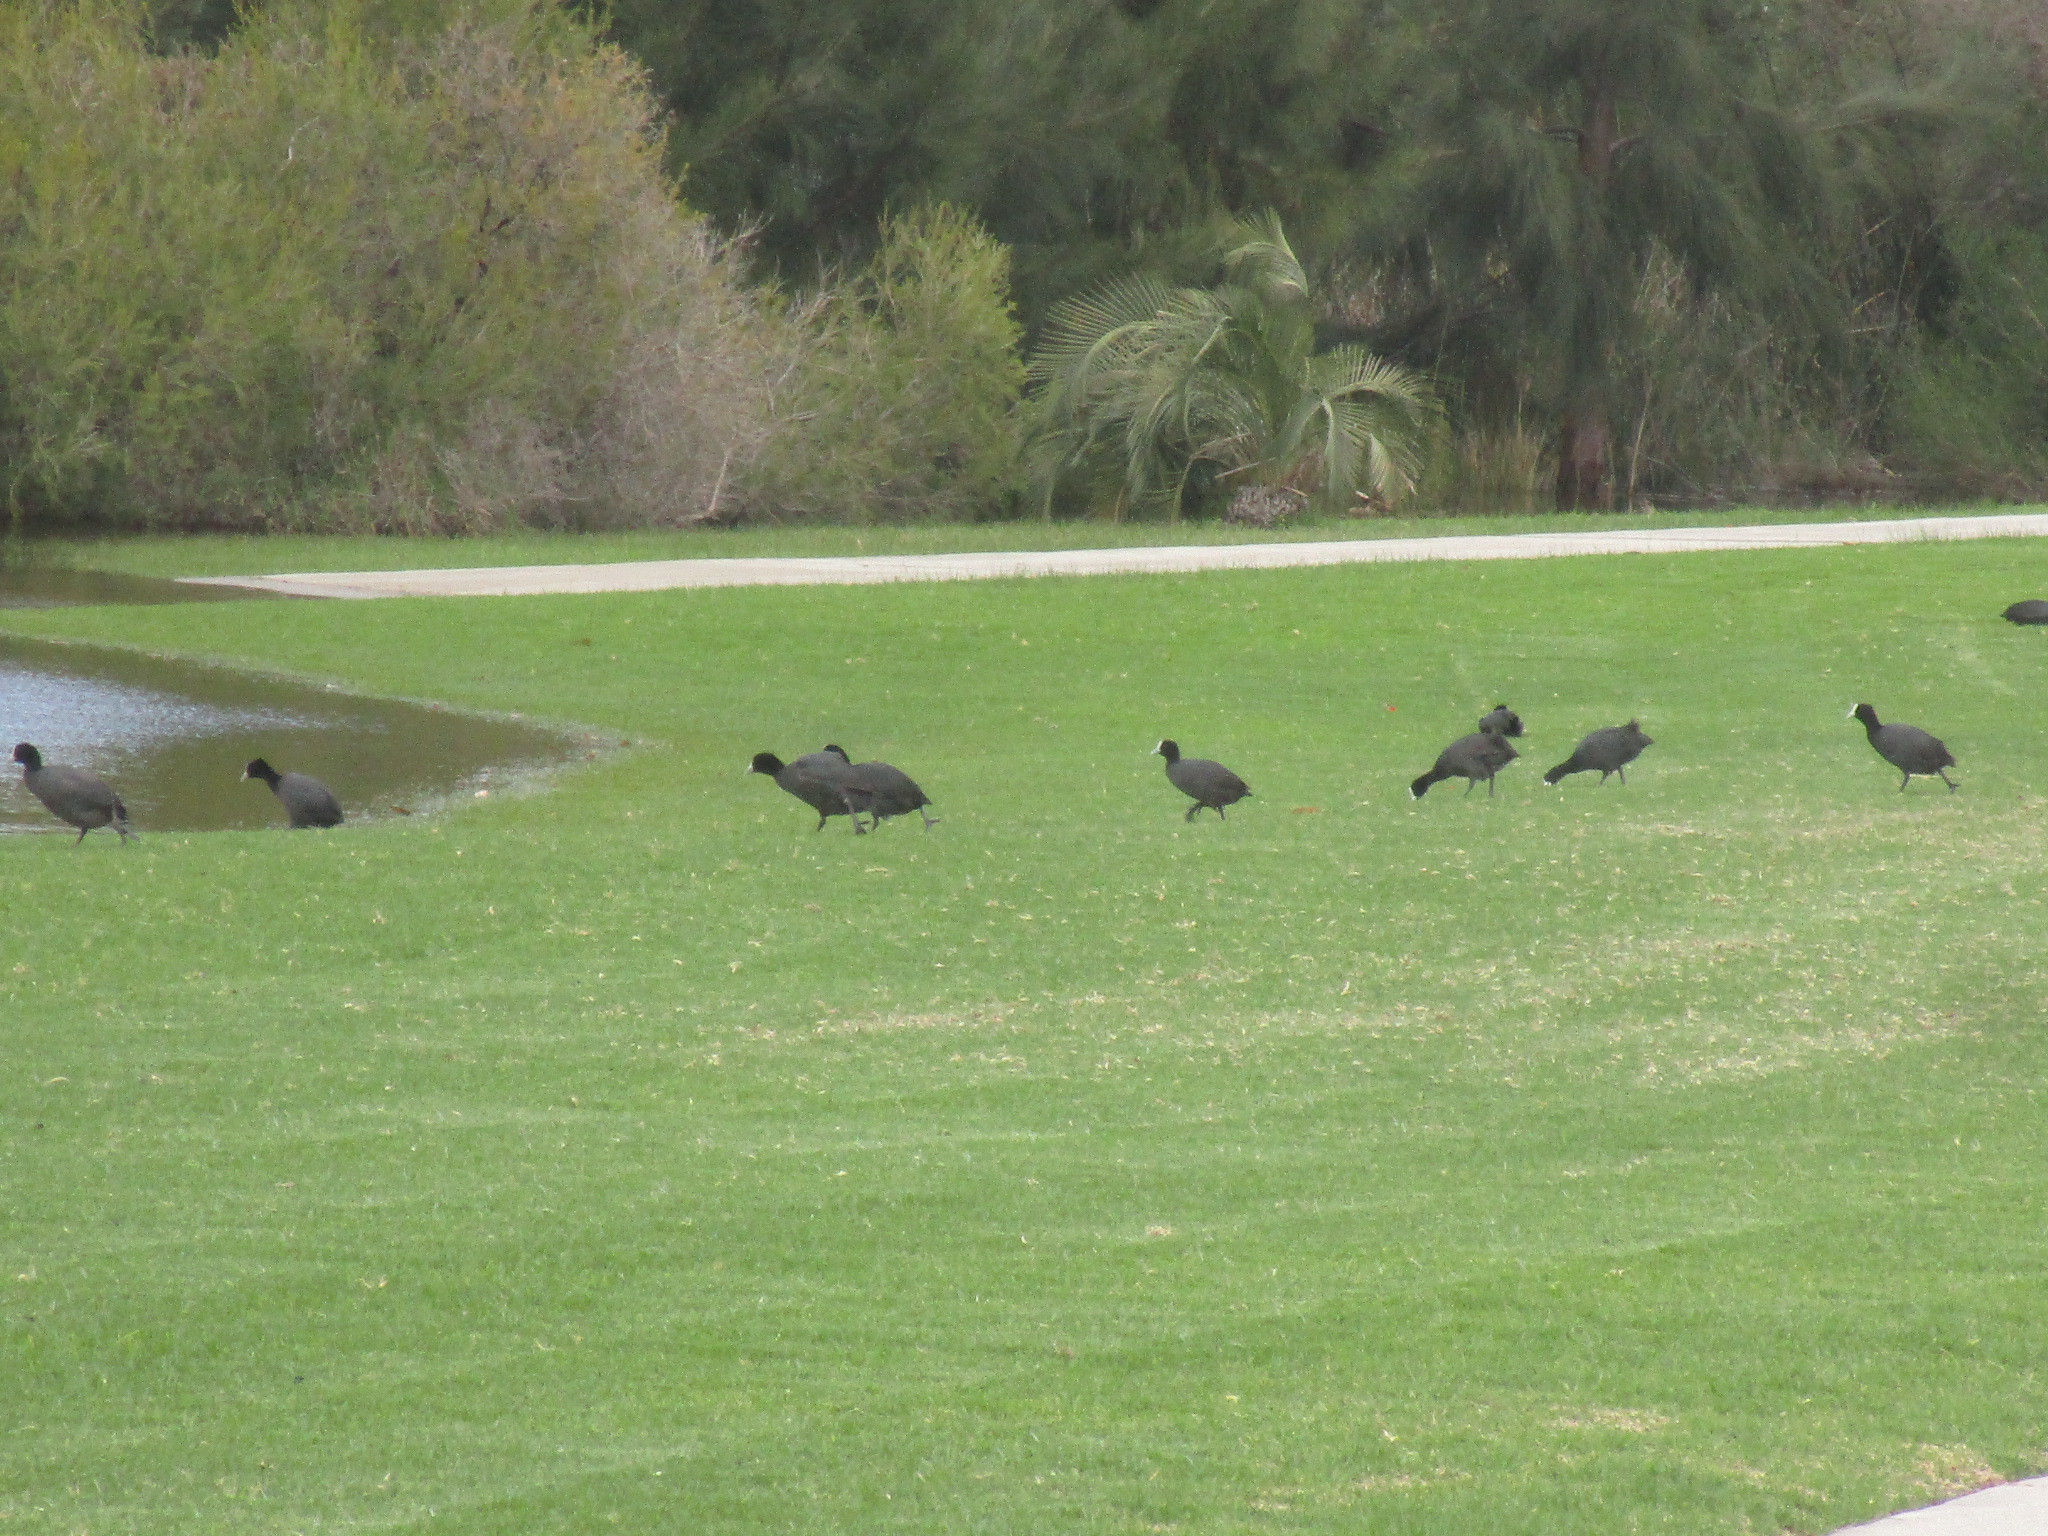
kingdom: Animalia
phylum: Chordata
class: Aves
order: Gruiformes
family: Rallidae
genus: Fulica
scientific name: Fulica atra
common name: Eurasian coot
